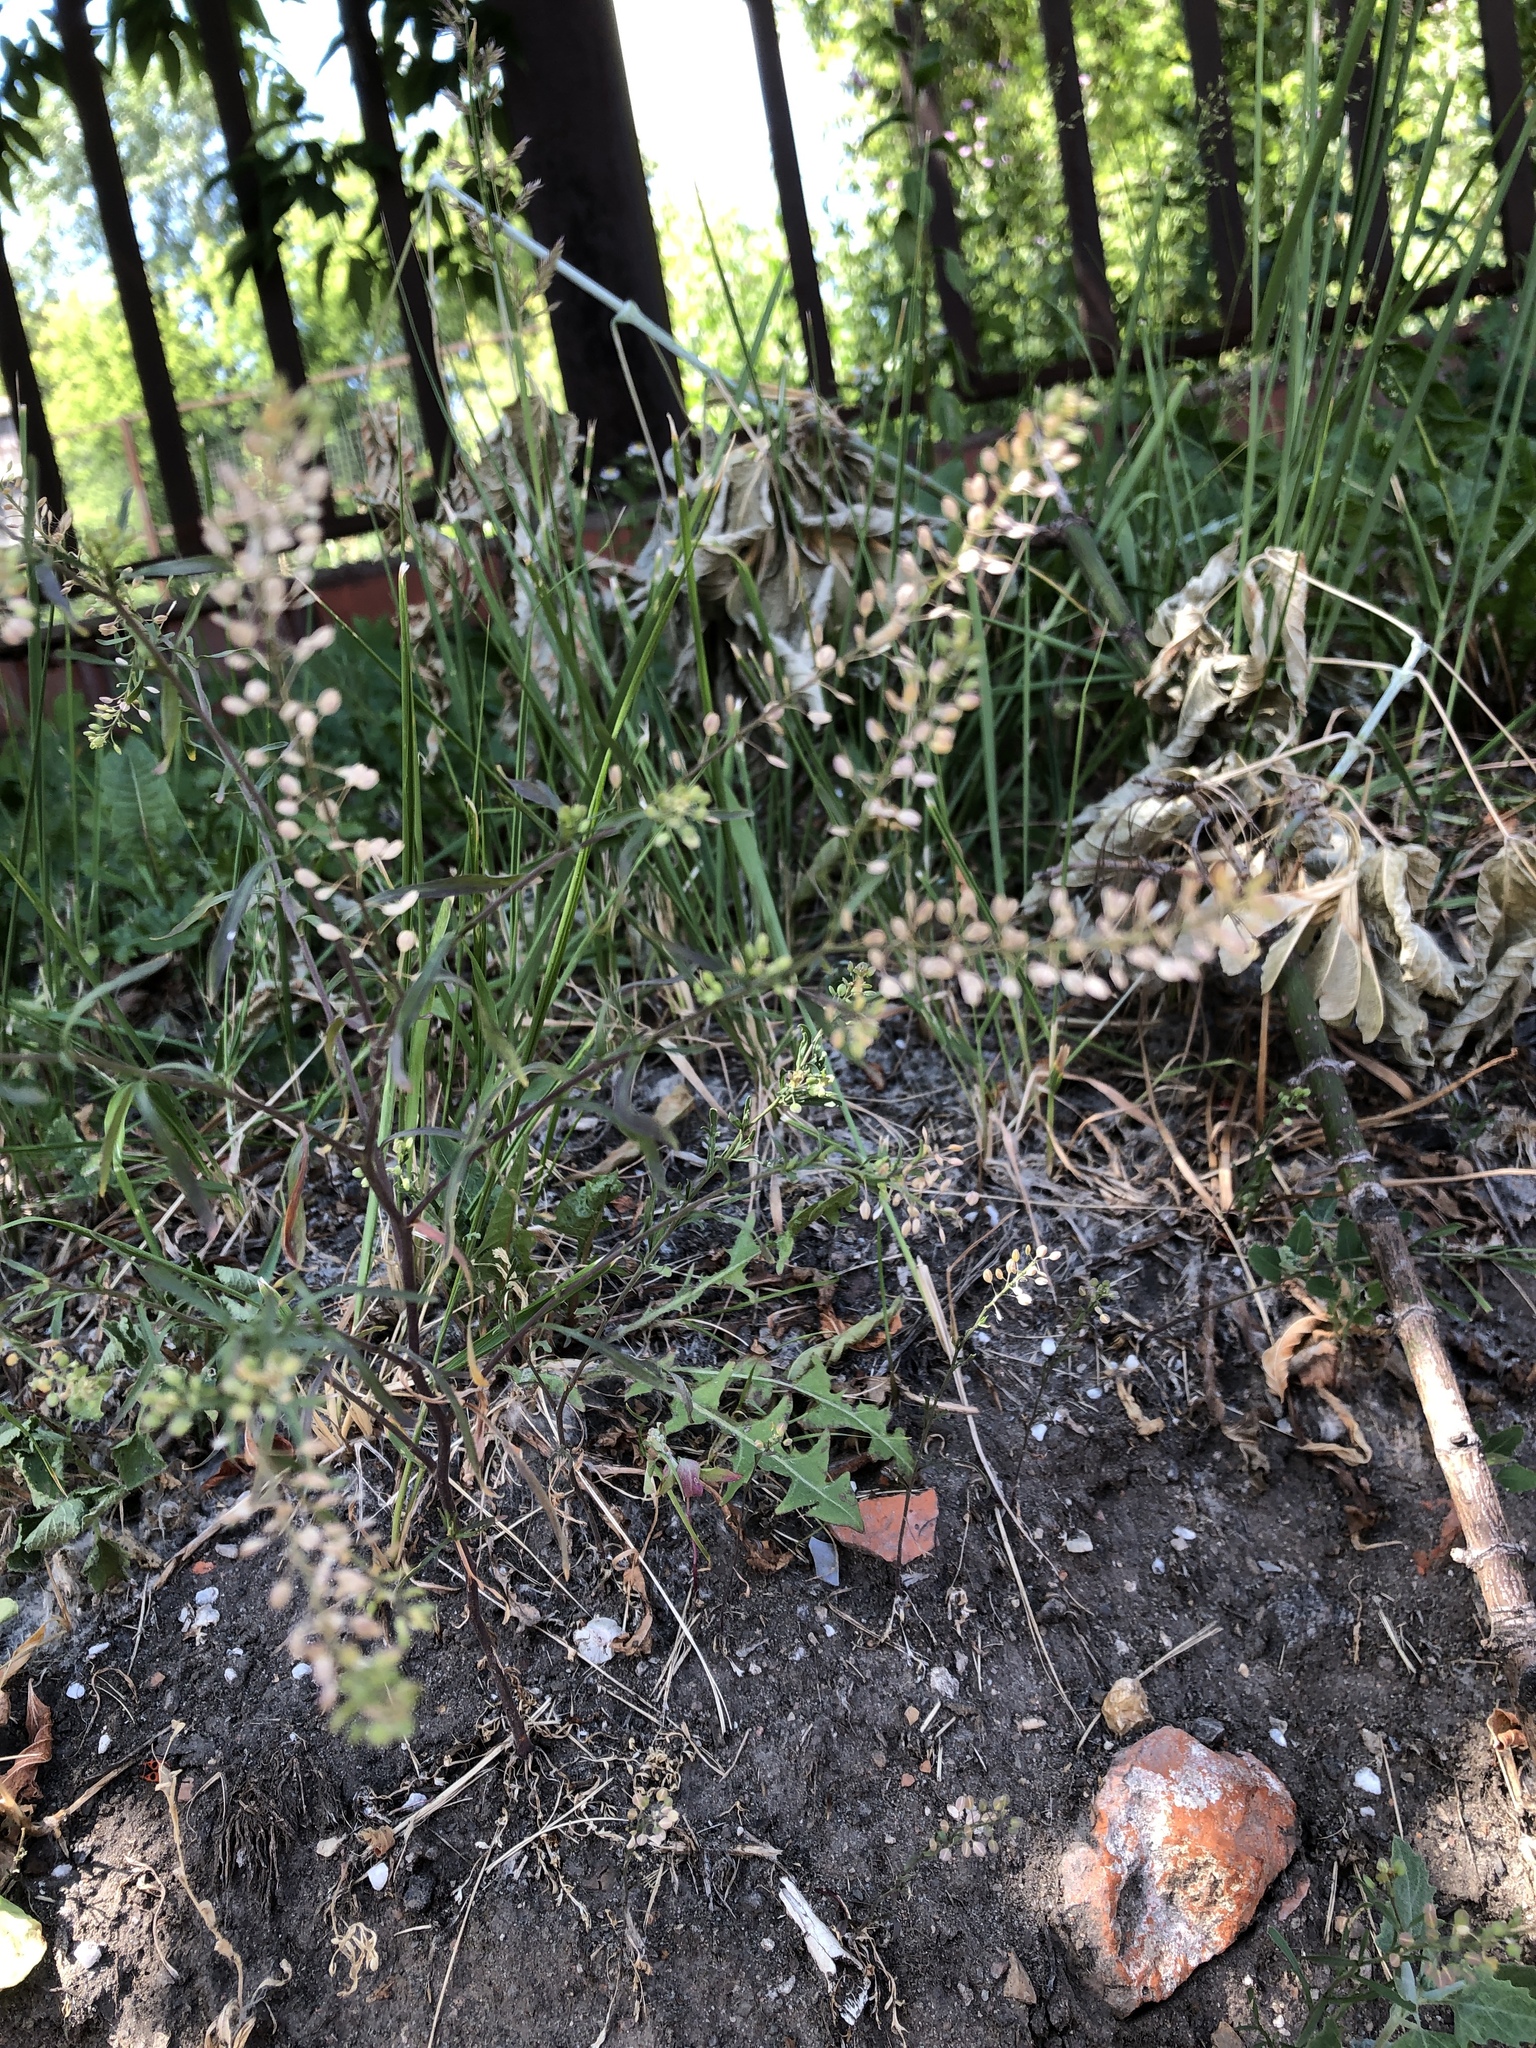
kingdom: Plantae
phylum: Tracheophyta
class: Magnoliopsida
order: Brassicales
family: Brassicaceae
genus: Lepidium
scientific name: Lepidium ruderale
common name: Narrow-leaved pepperwort
